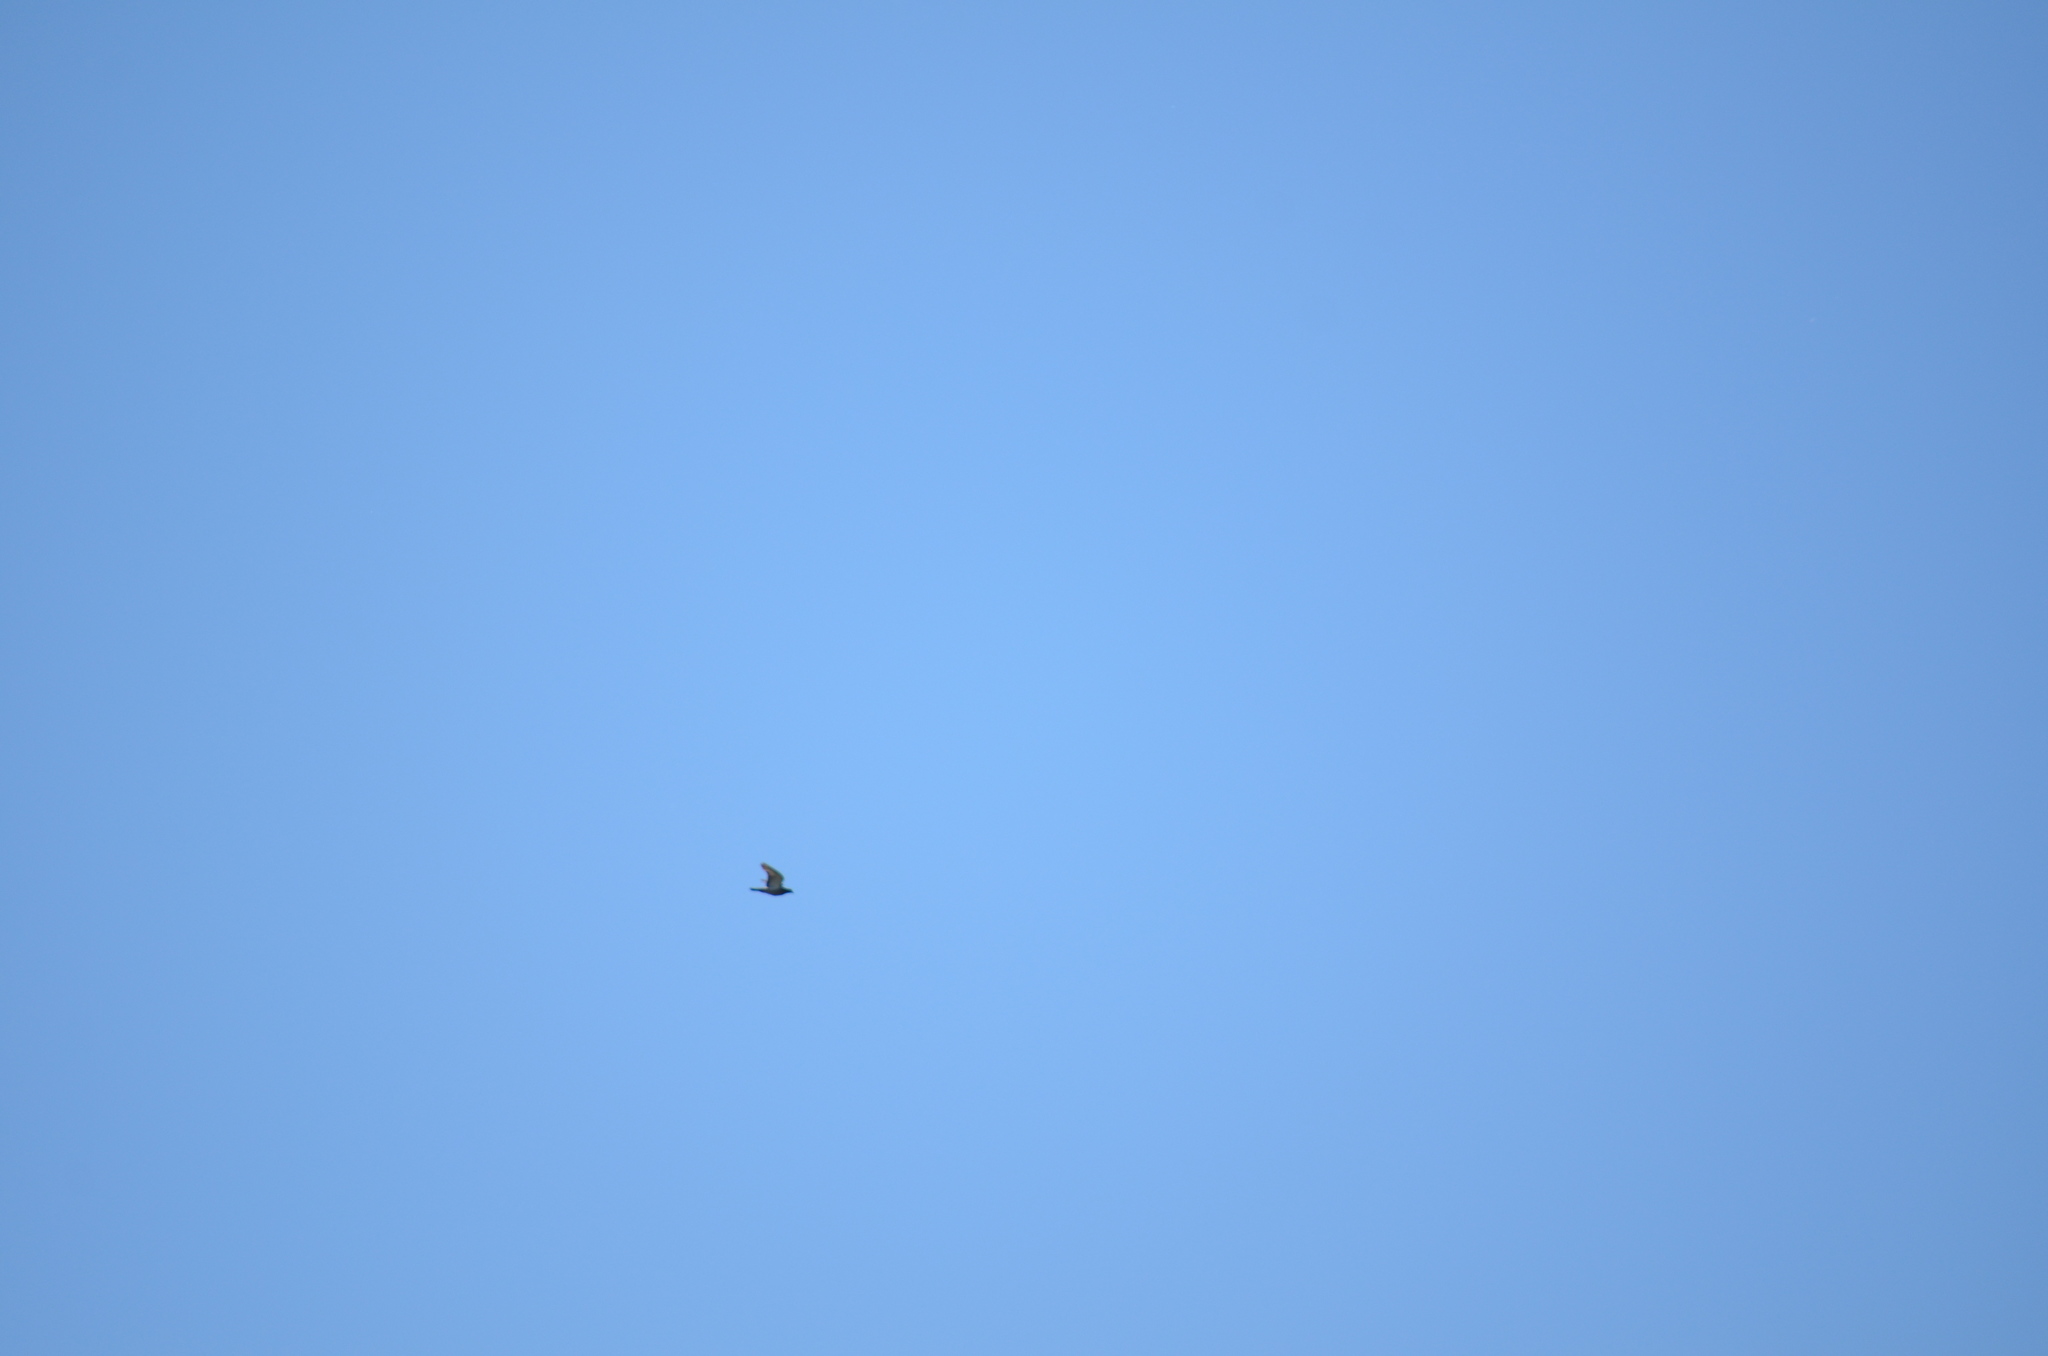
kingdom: Animalia
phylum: Chordata
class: Aves
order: Columbiformes
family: Columbidae
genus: Columba
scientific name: Columba livia
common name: Rock pigeon
